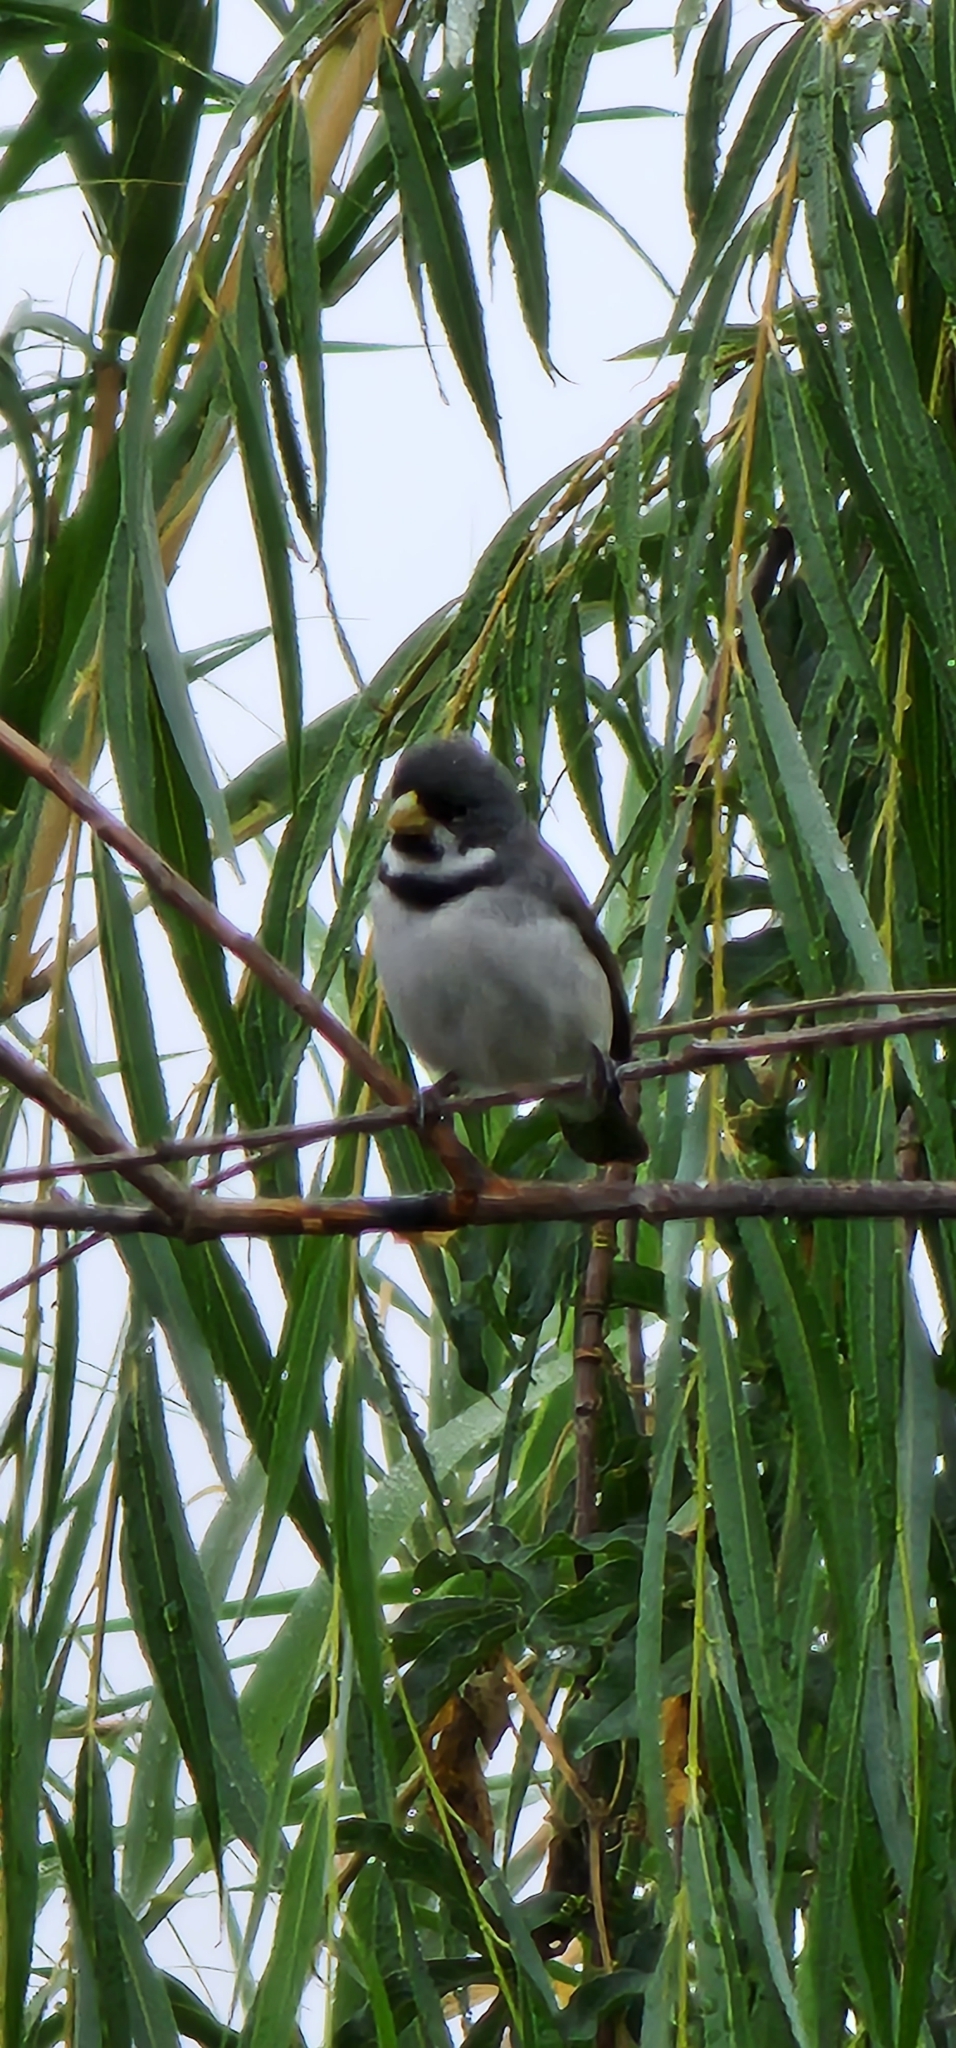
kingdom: Animalia
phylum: Chordata
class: Aves
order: Passeriformes
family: Thraupidae
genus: Sporophila
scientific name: Sporophila caerulescens
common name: Double-collared seedeater
